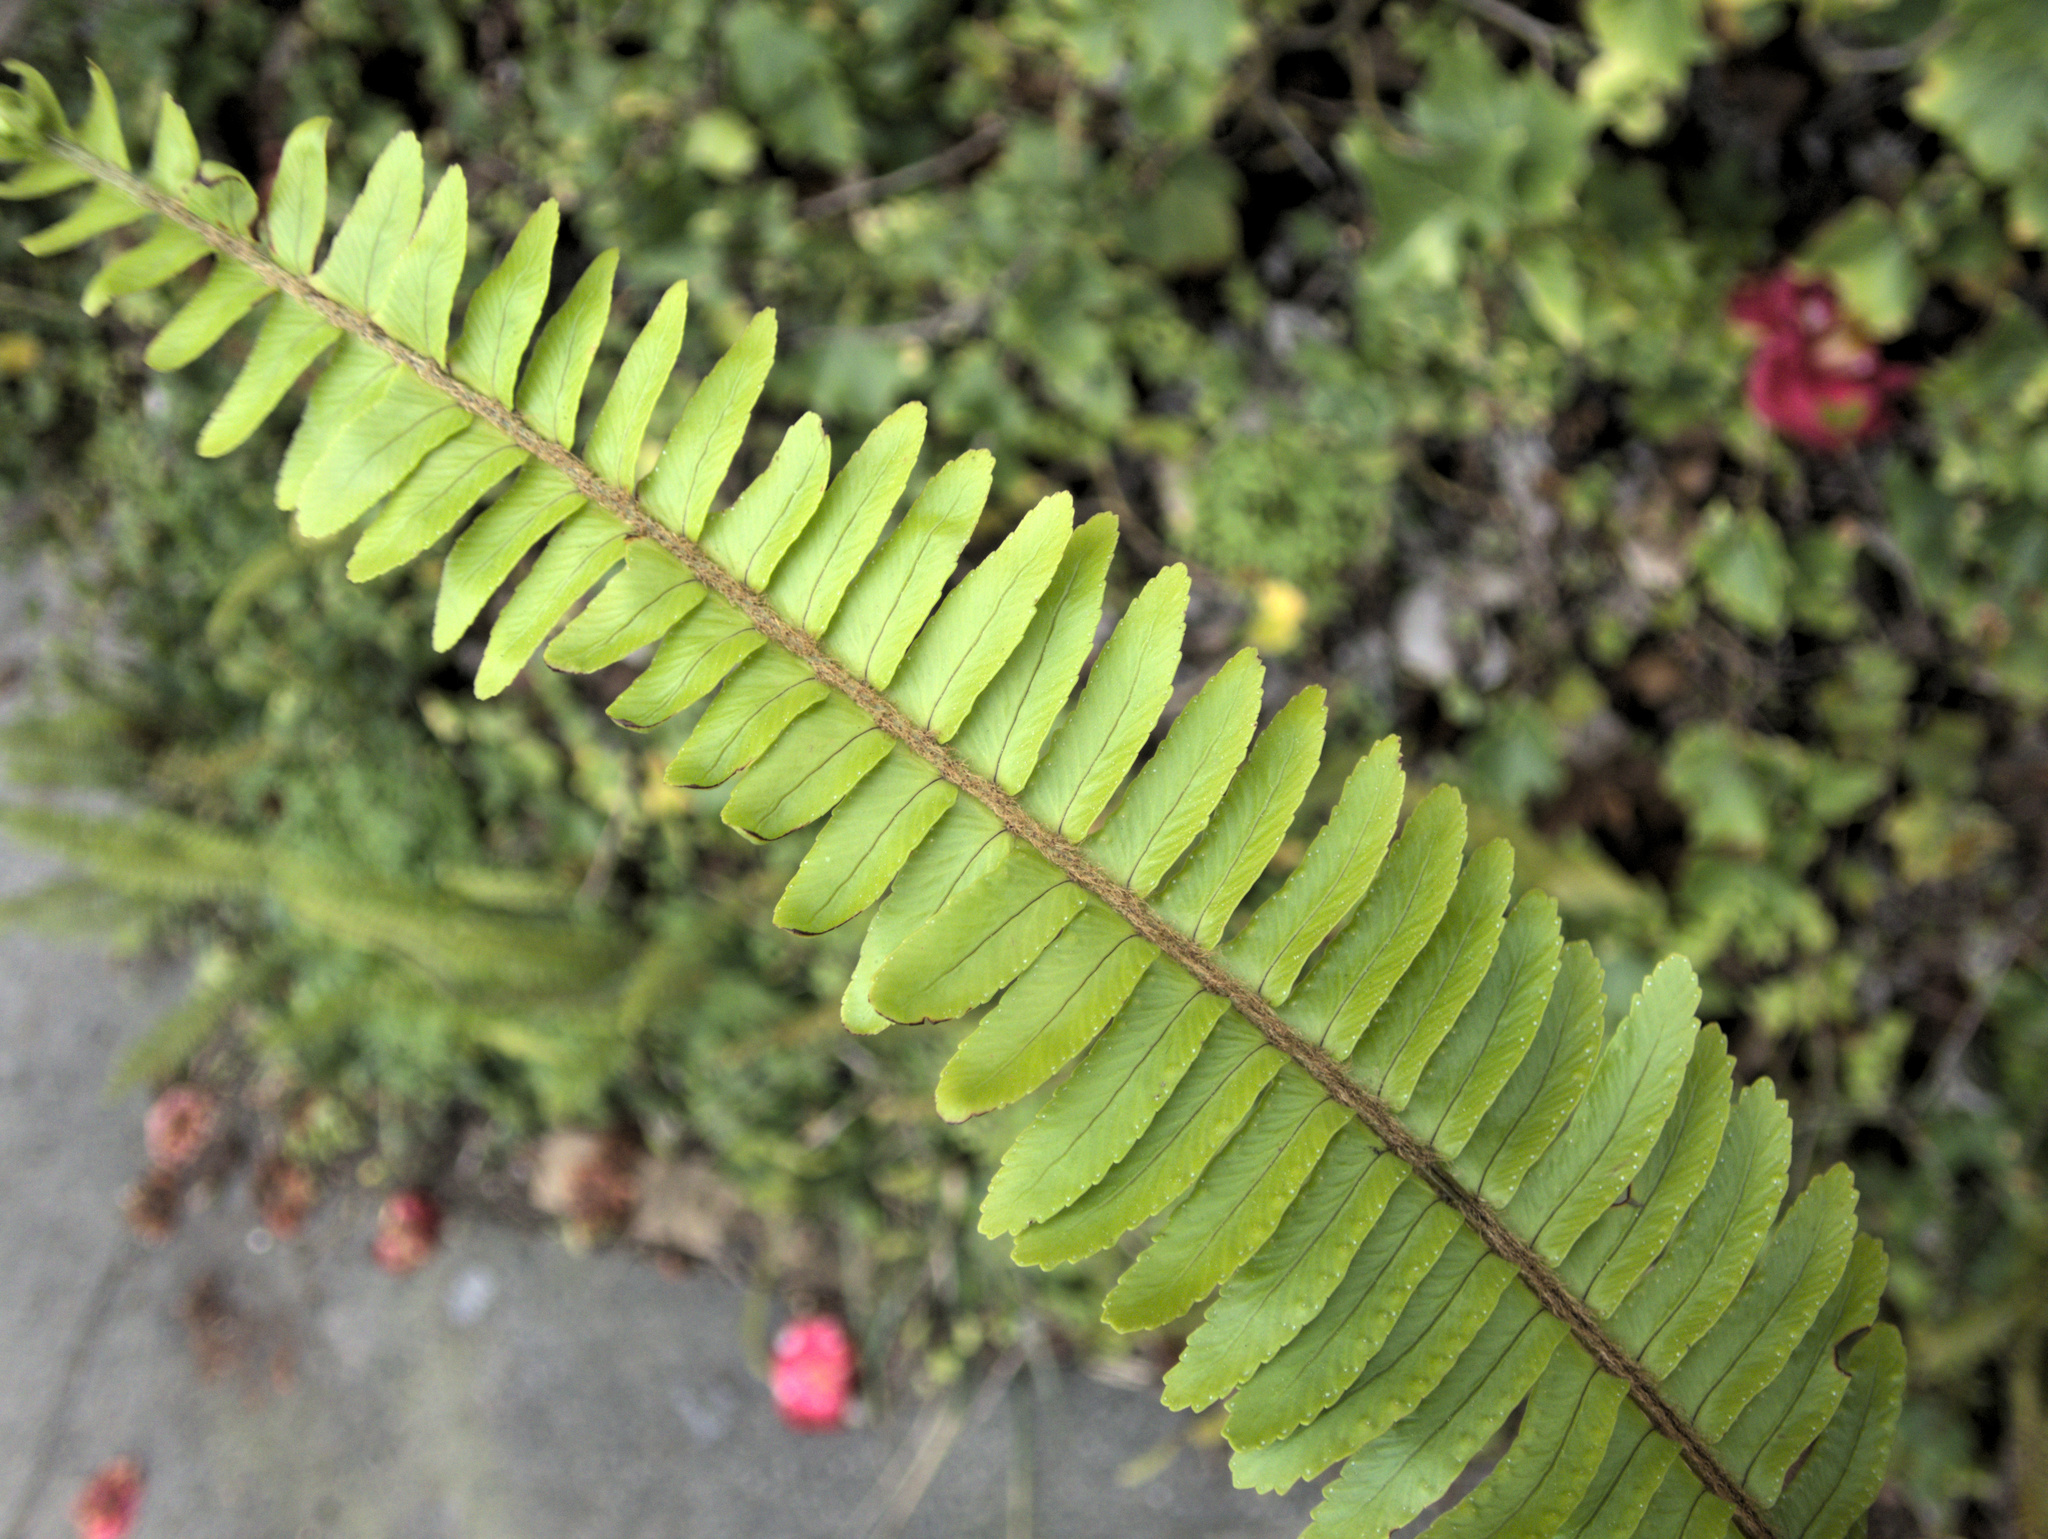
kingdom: Plantae
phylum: Tracheophyta
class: Polypodiopsida
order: Polypodiales
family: Nephrolepidaceae
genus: Nephrolepis
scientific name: Nephrolepis cordifolia
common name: Narrow swordfern
